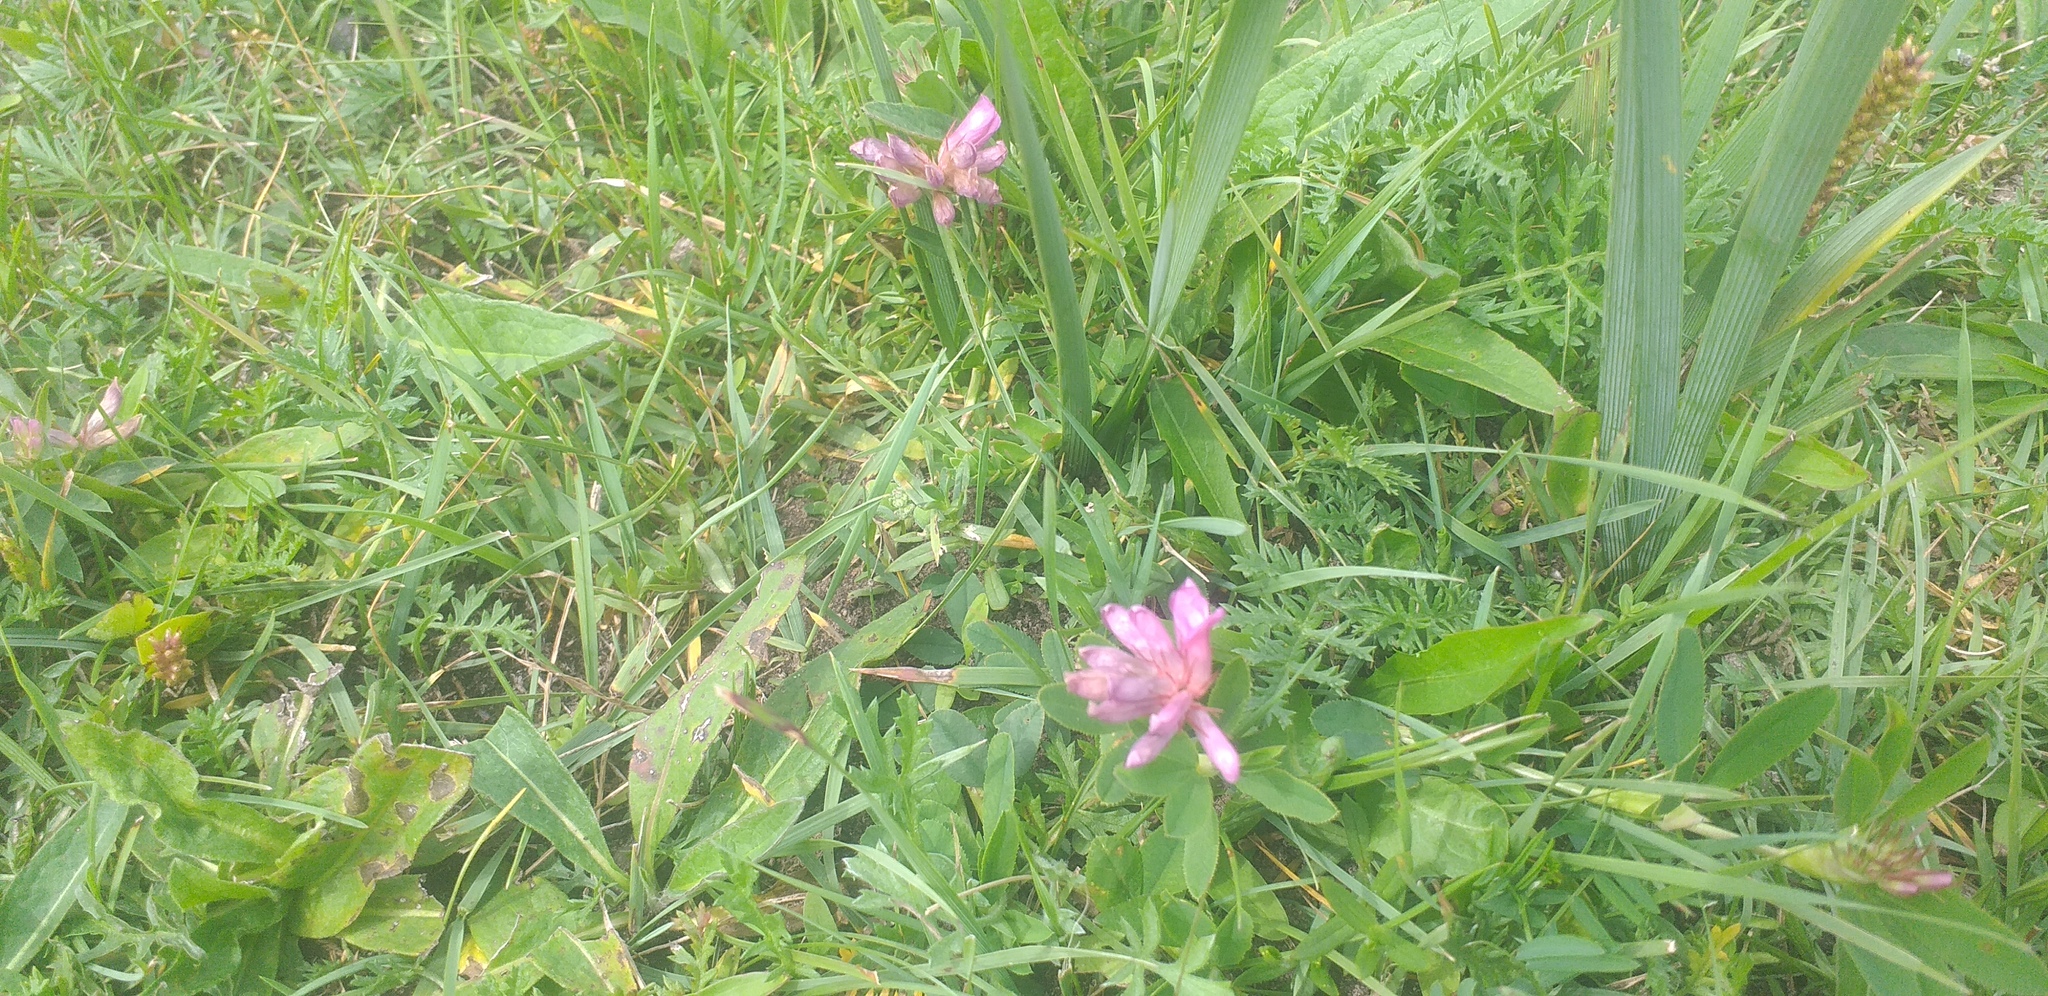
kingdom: Plantae
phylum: Tracheophyta
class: Magnoliopsida
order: Fabales
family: Fabaceae
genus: Trifolium
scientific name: Trifolium lupinaster
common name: Lupine clover
